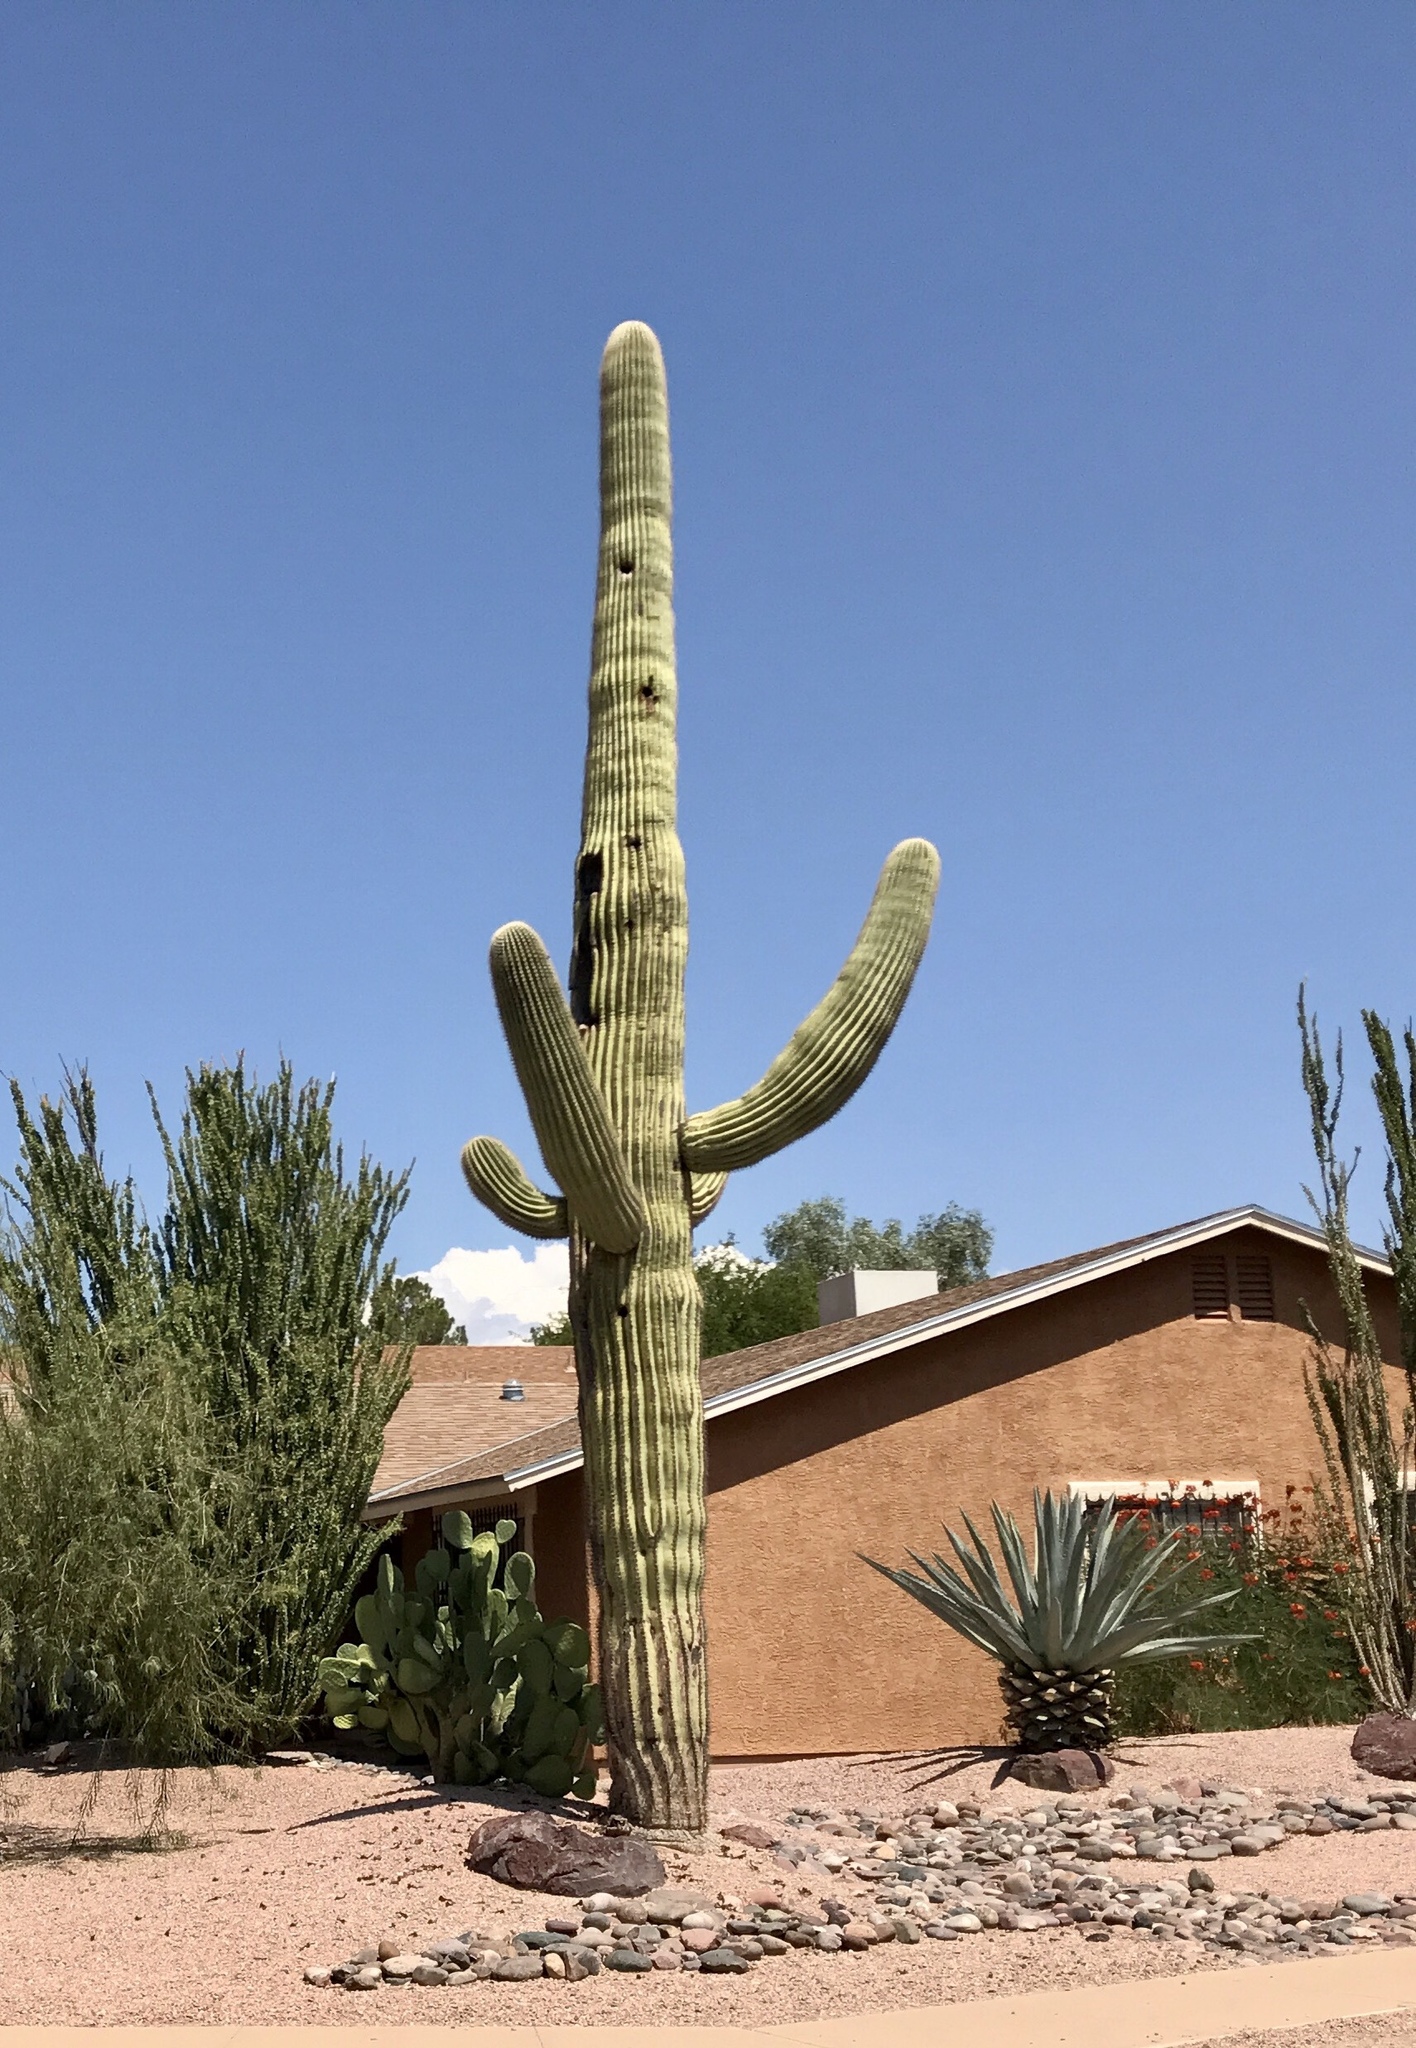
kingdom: Plantae
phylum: Tracheophyta
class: Magnoliopsida
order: Caryophyllales
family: Cactaceae
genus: Carnegiea
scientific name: Carnegiea gigantea
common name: Saguaro
